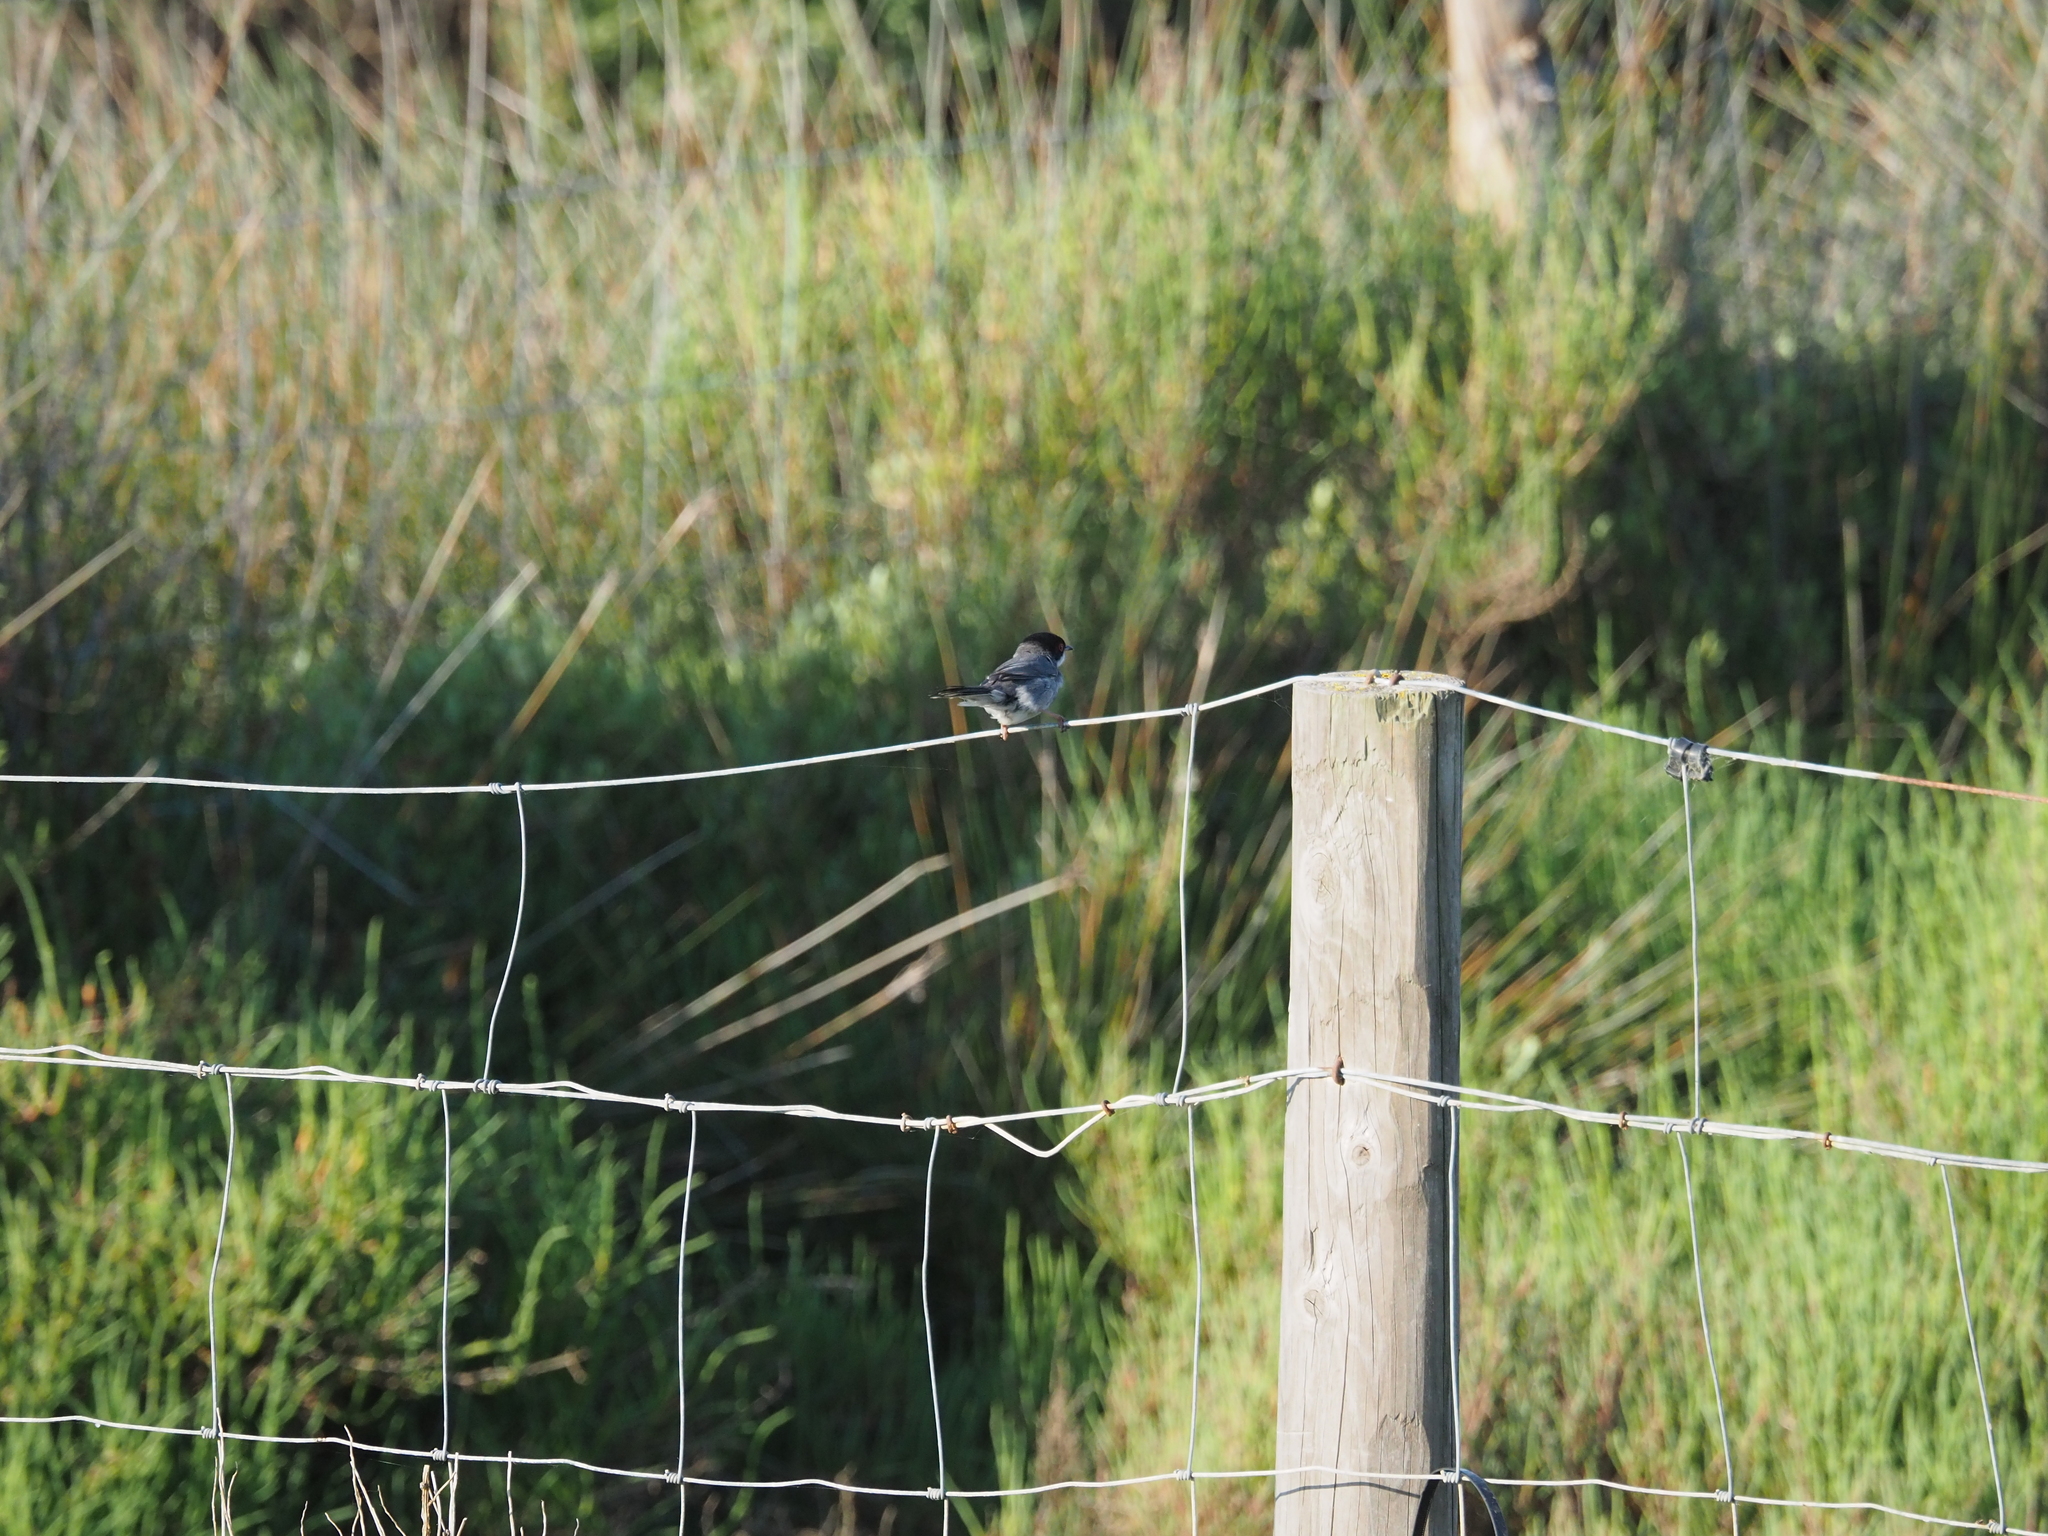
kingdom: Animalia
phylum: Chordata
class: Aves
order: Passeriformes
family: Sylviidae
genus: Curruca
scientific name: Curruca melanocephala
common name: Sardinian warbler
